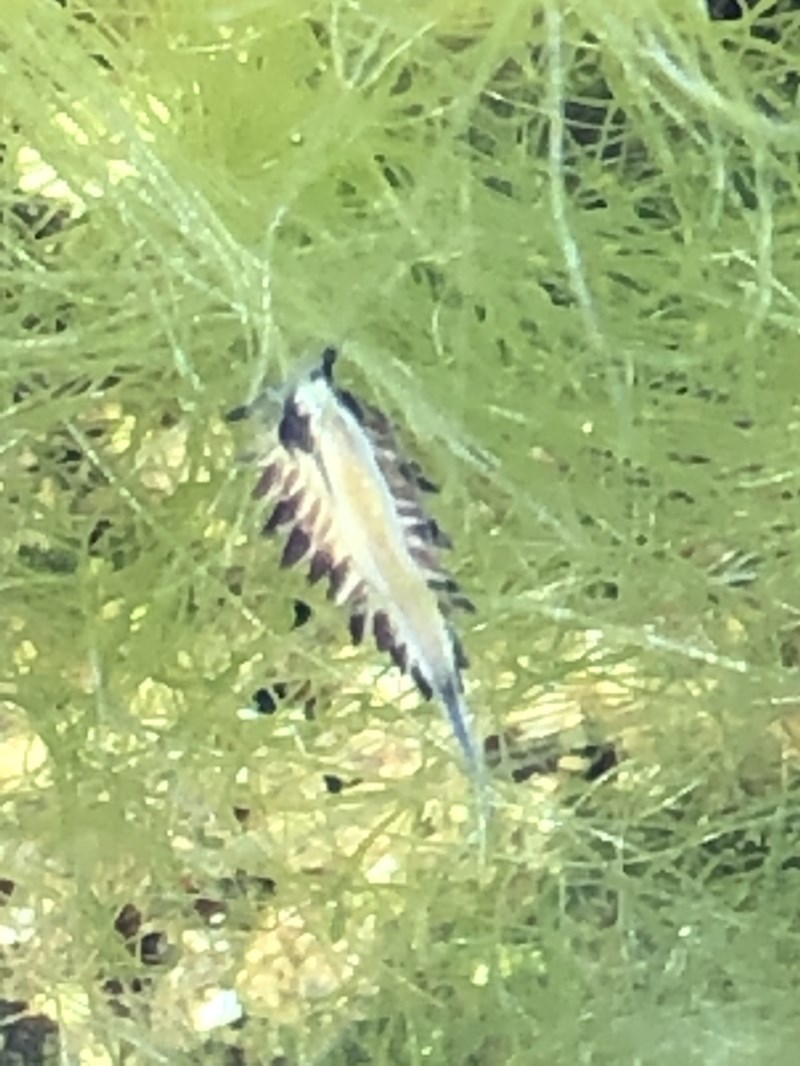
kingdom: Animalia
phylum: Mollusca
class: Gastropoda
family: Limapontiidae
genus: Ercolania
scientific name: Ercolania margaritae
